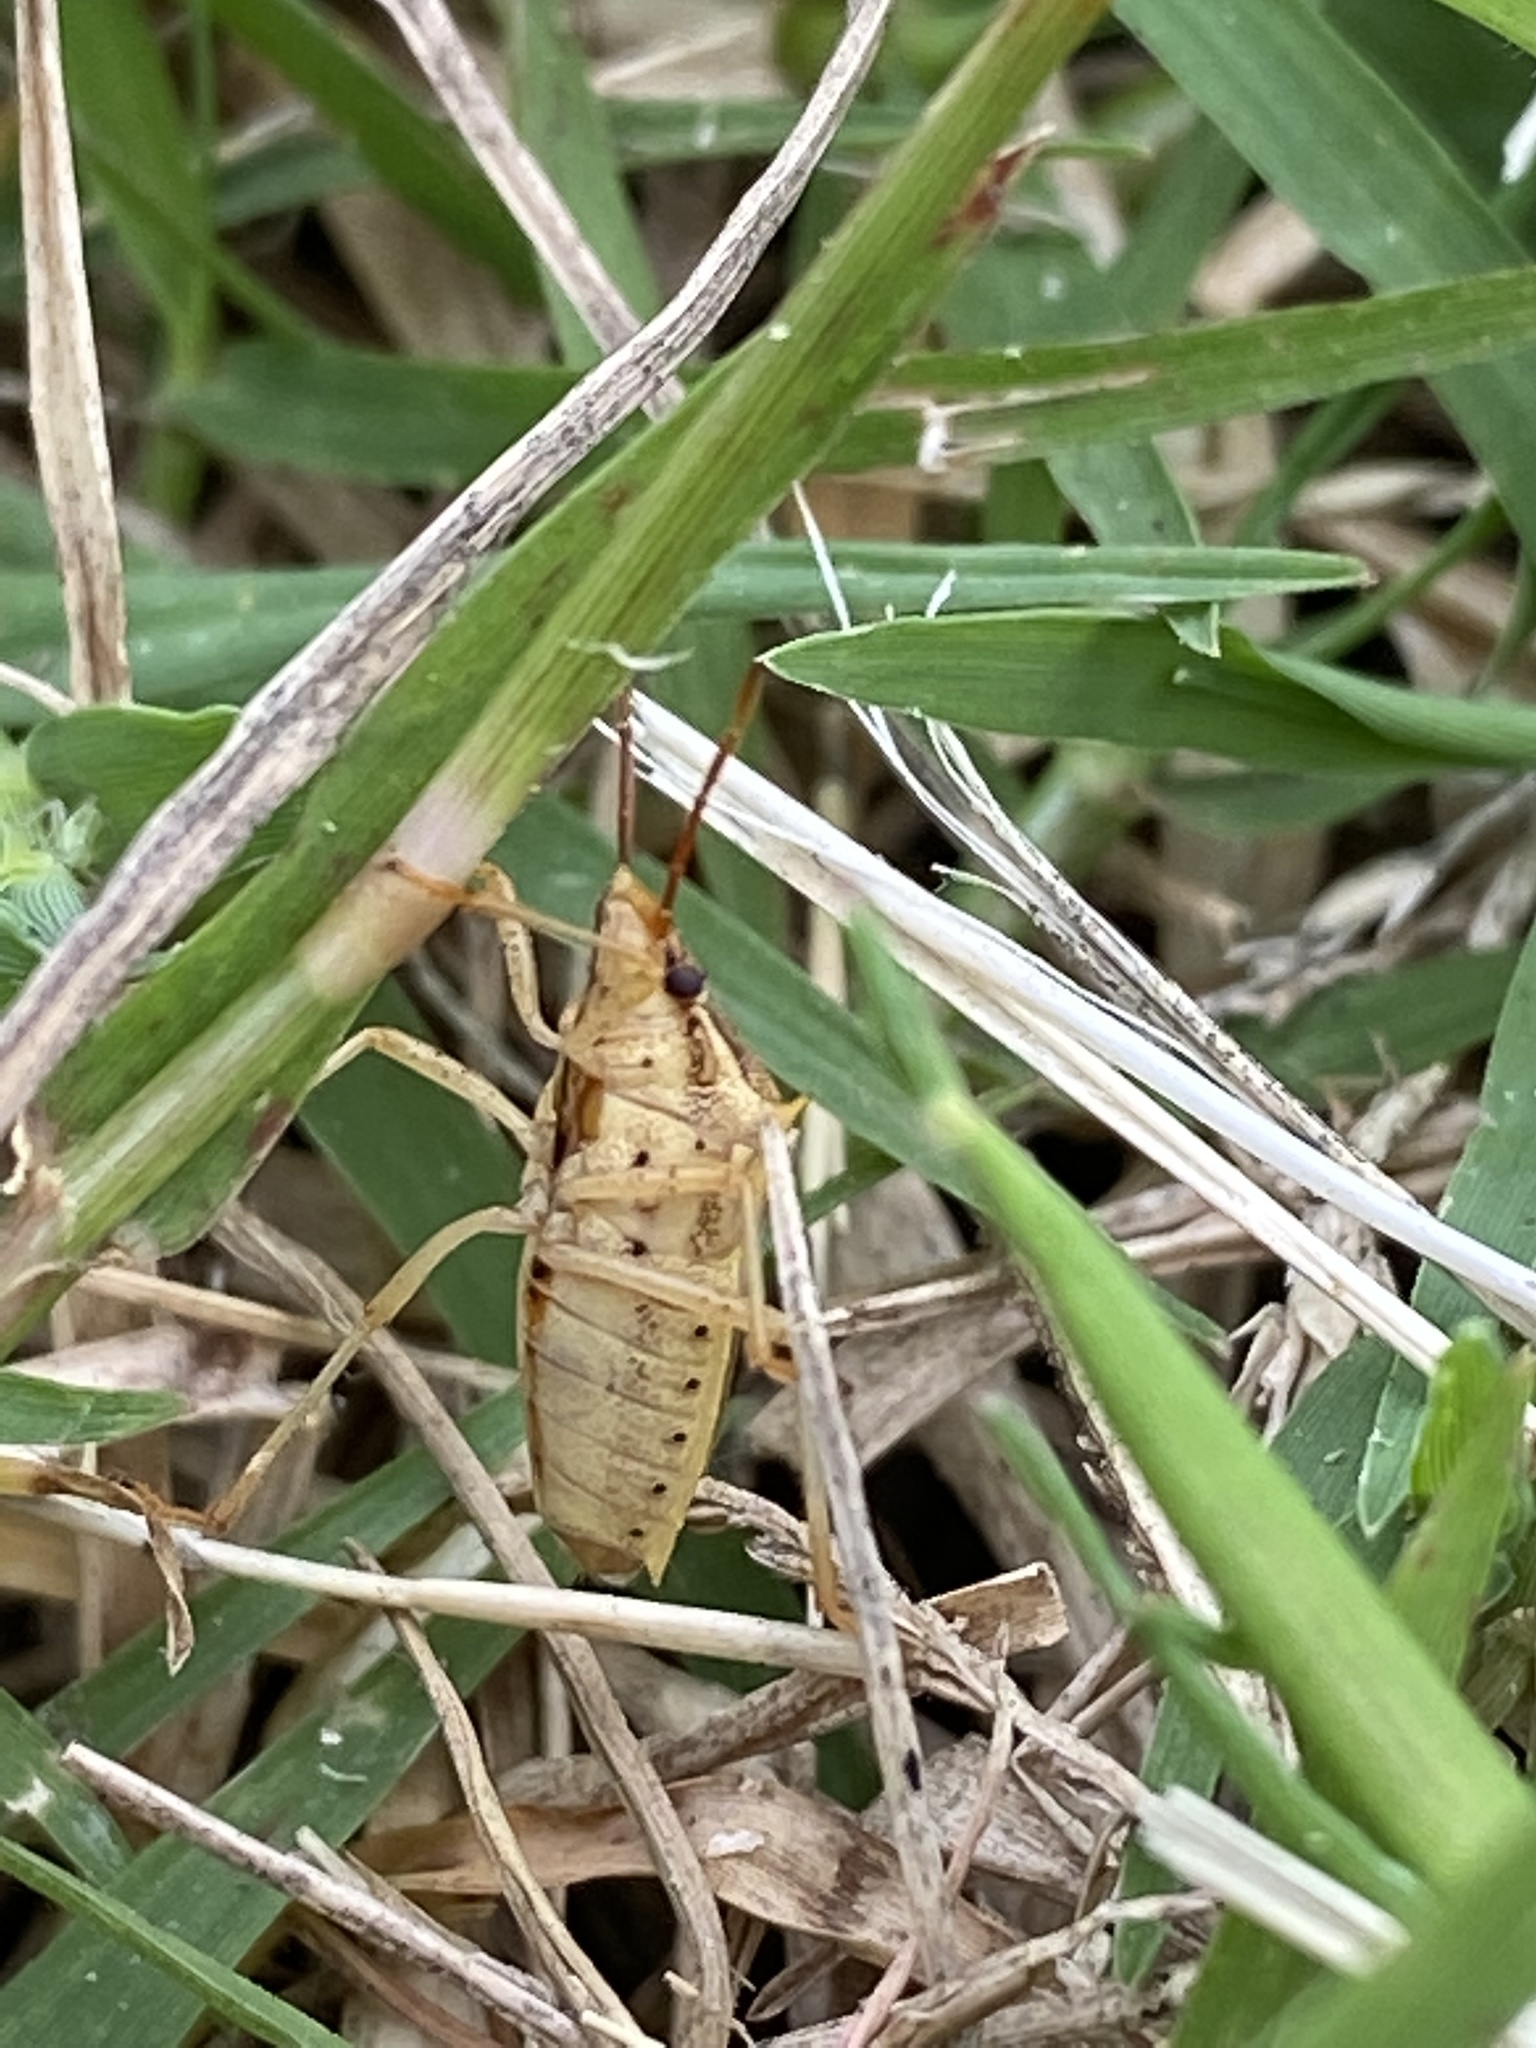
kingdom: Animalia
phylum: Arthropoda
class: Insecta
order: Hemiptera
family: Pentatomidae
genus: Oebalus
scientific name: Oebalus pugnax
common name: Rice stink bug
